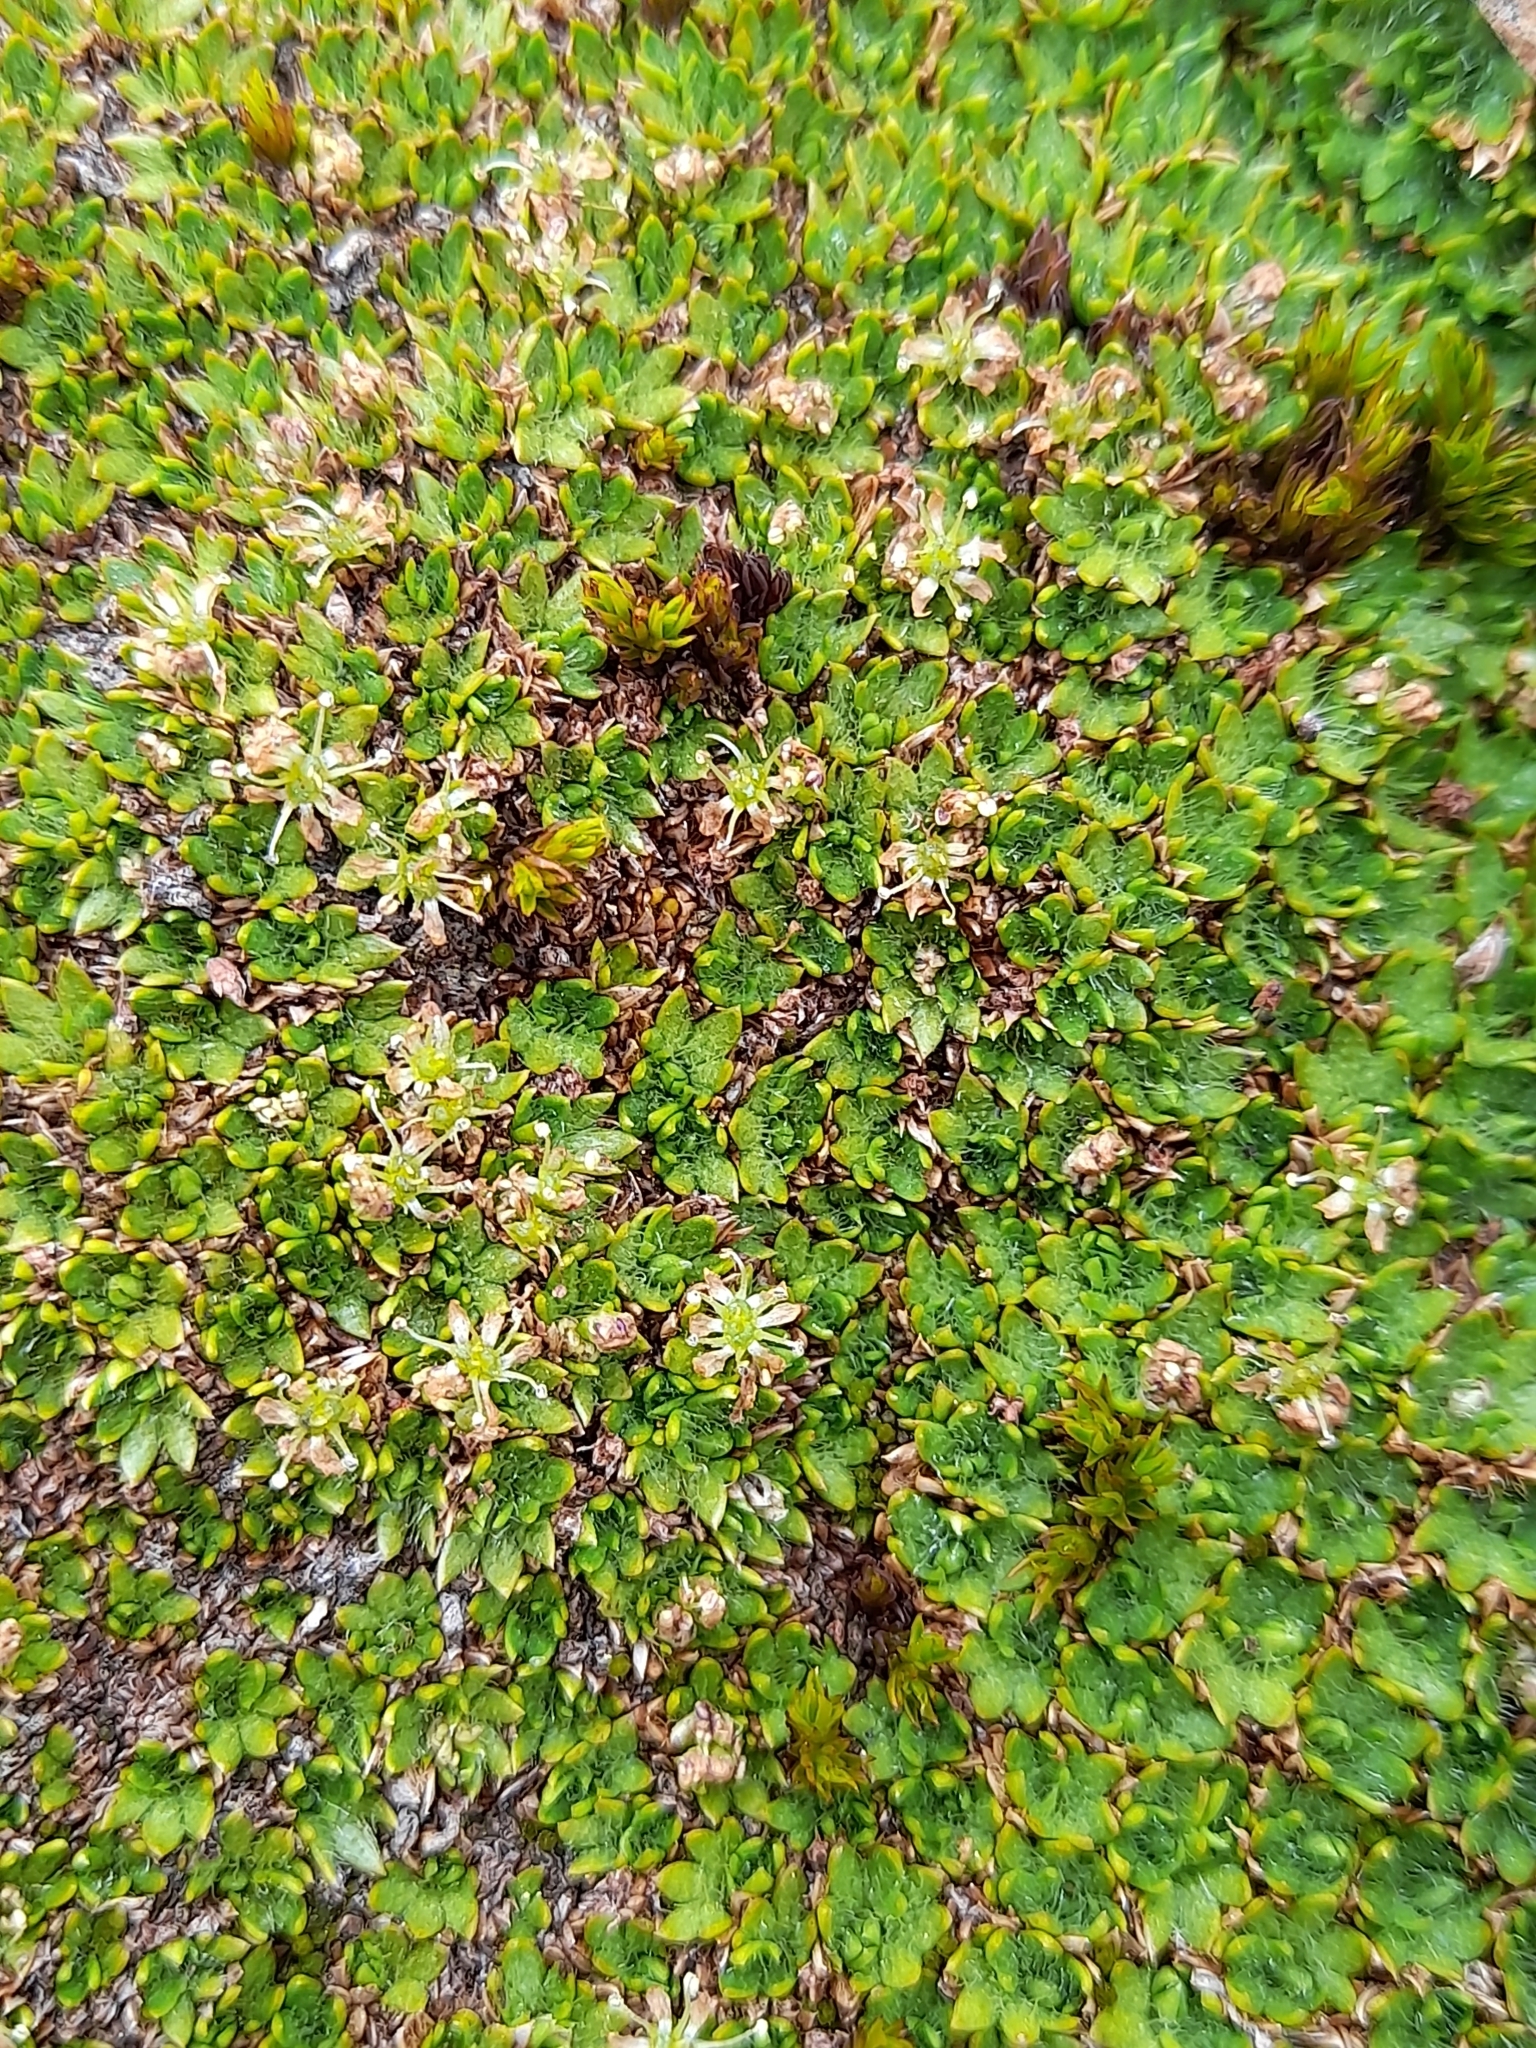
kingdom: Plantae
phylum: Tracheophyta
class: Magnoliopsida
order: Apiales
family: Apiaceae
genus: Azorella
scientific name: Azorella selago
